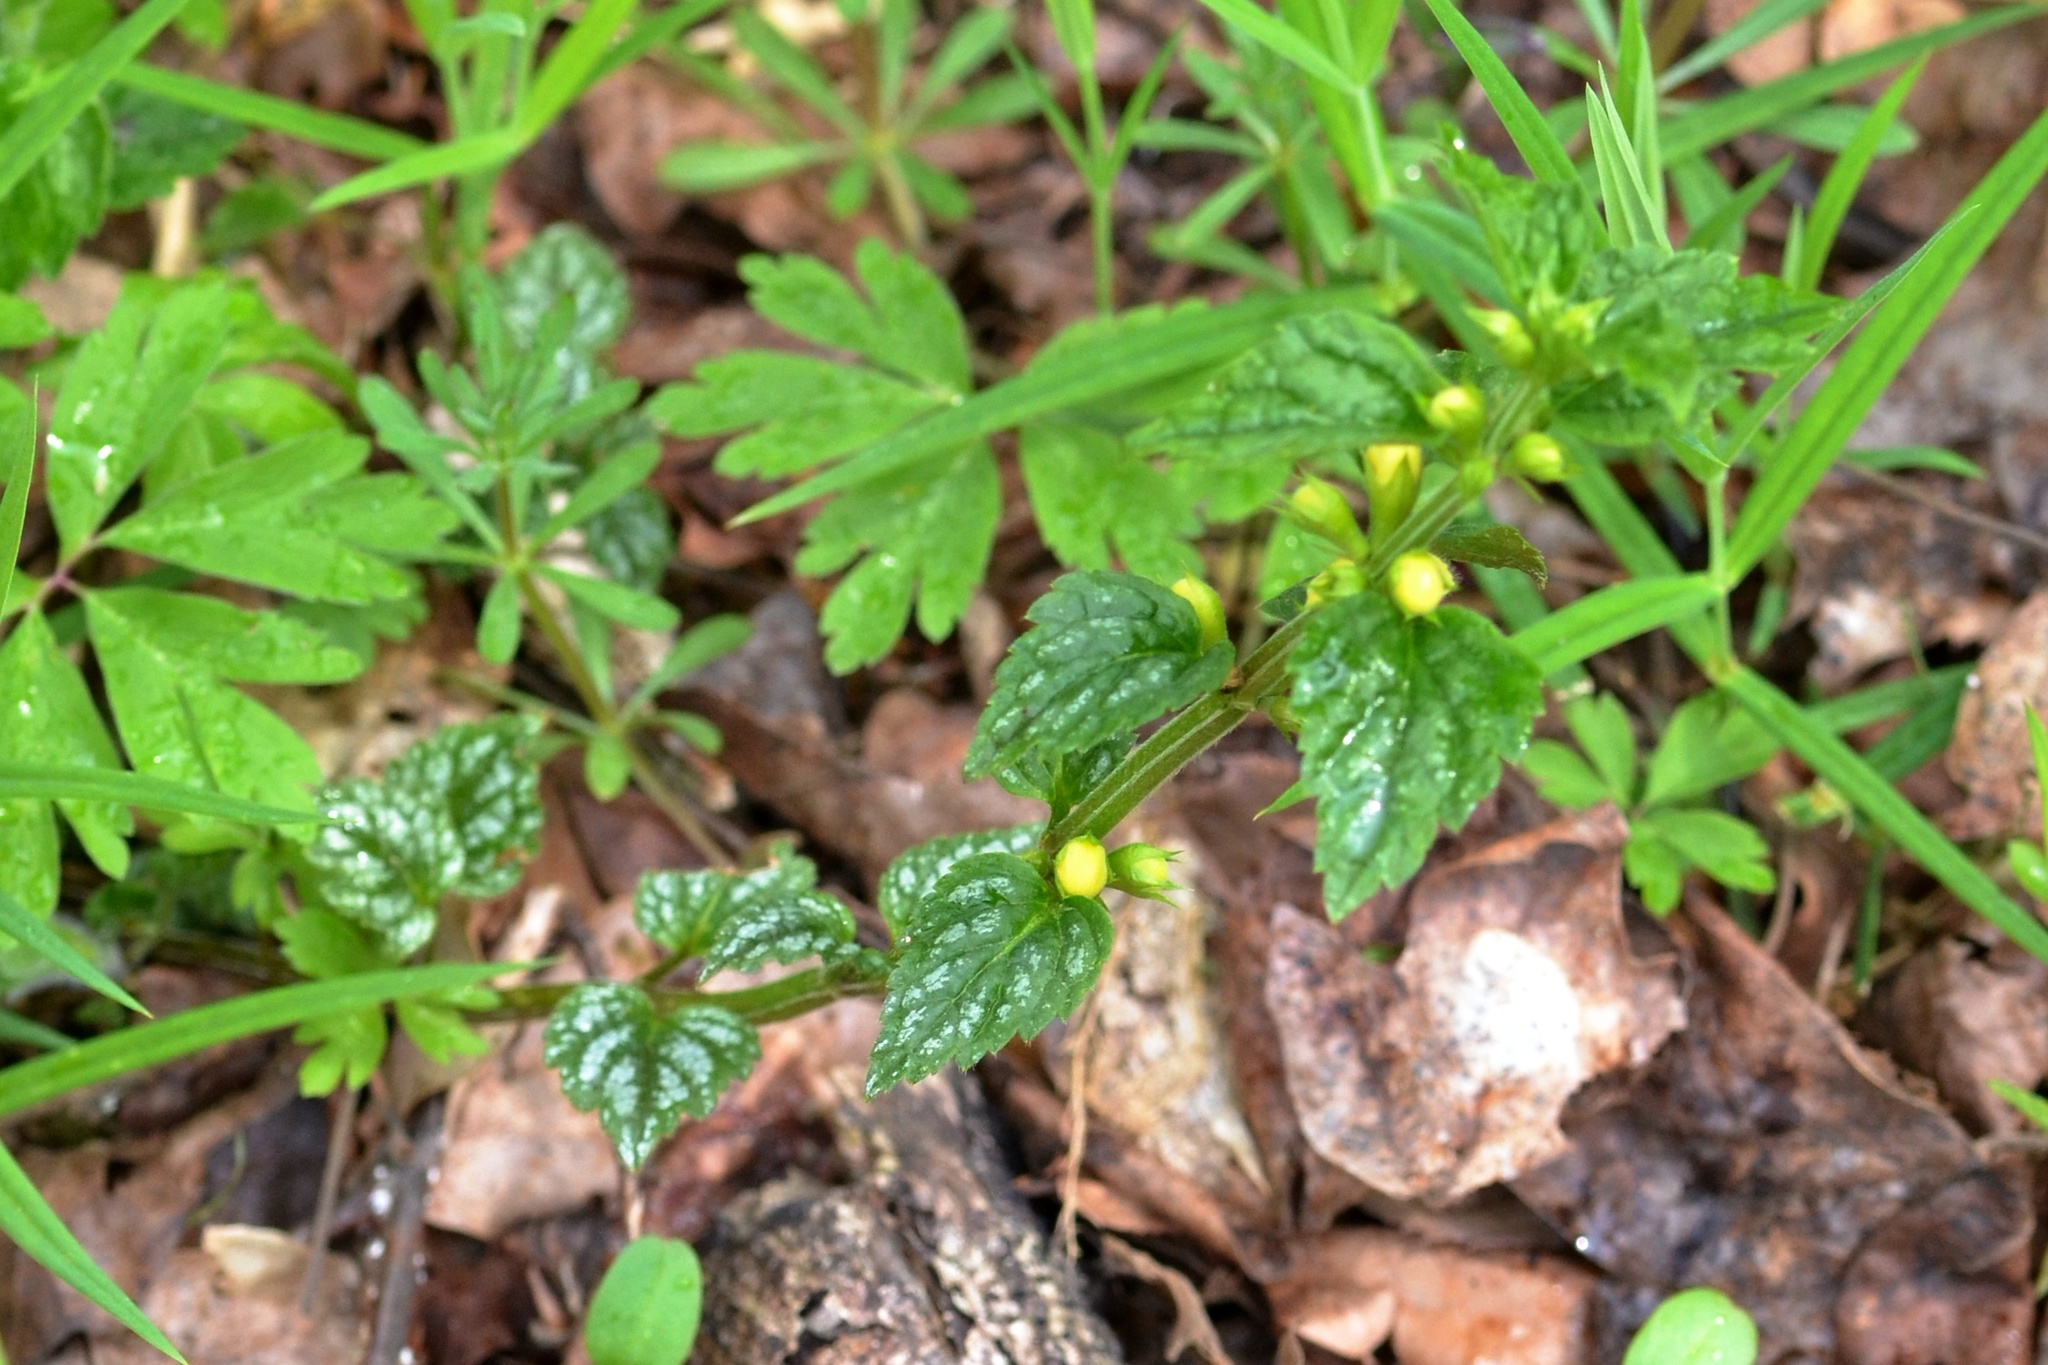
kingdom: Plantae
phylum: Tracheophyta
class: Magnoliopsida
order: Lamiales
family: Lamiaceae
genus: Lamium
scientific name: Lamium galeobdolon
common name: Yellow archangel
